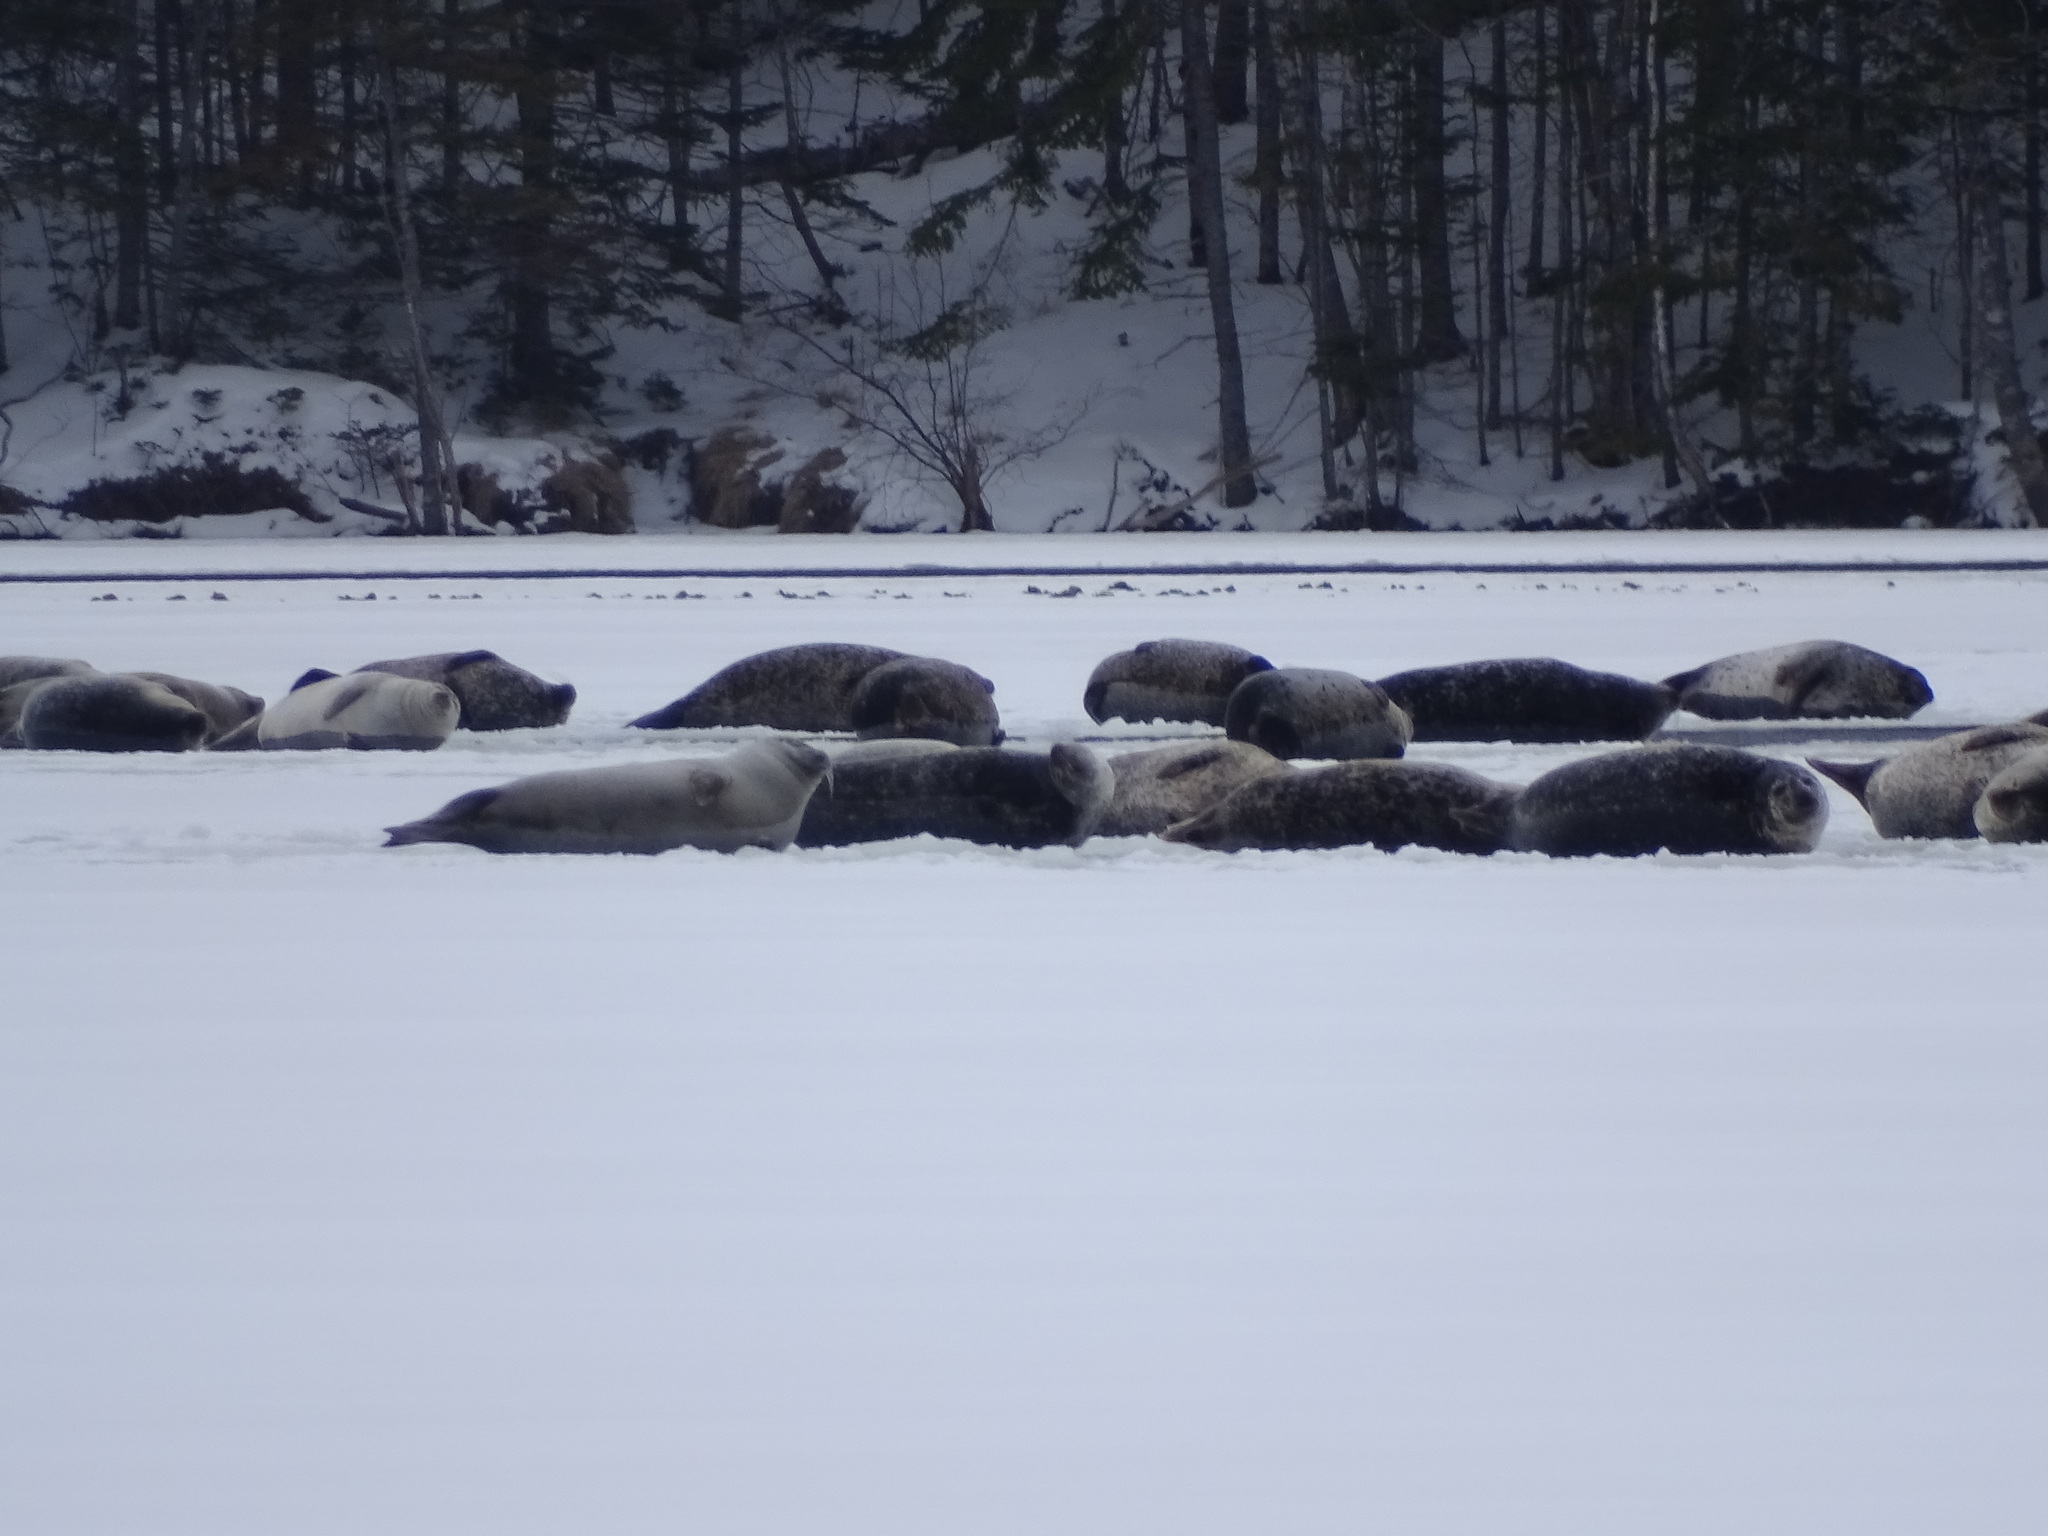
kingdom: Animalia
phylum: Chordata
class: Mammalia
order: Carnivora
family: Phocidae
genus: Phoca
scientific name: Phoca vitulina
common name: Harbor seal
